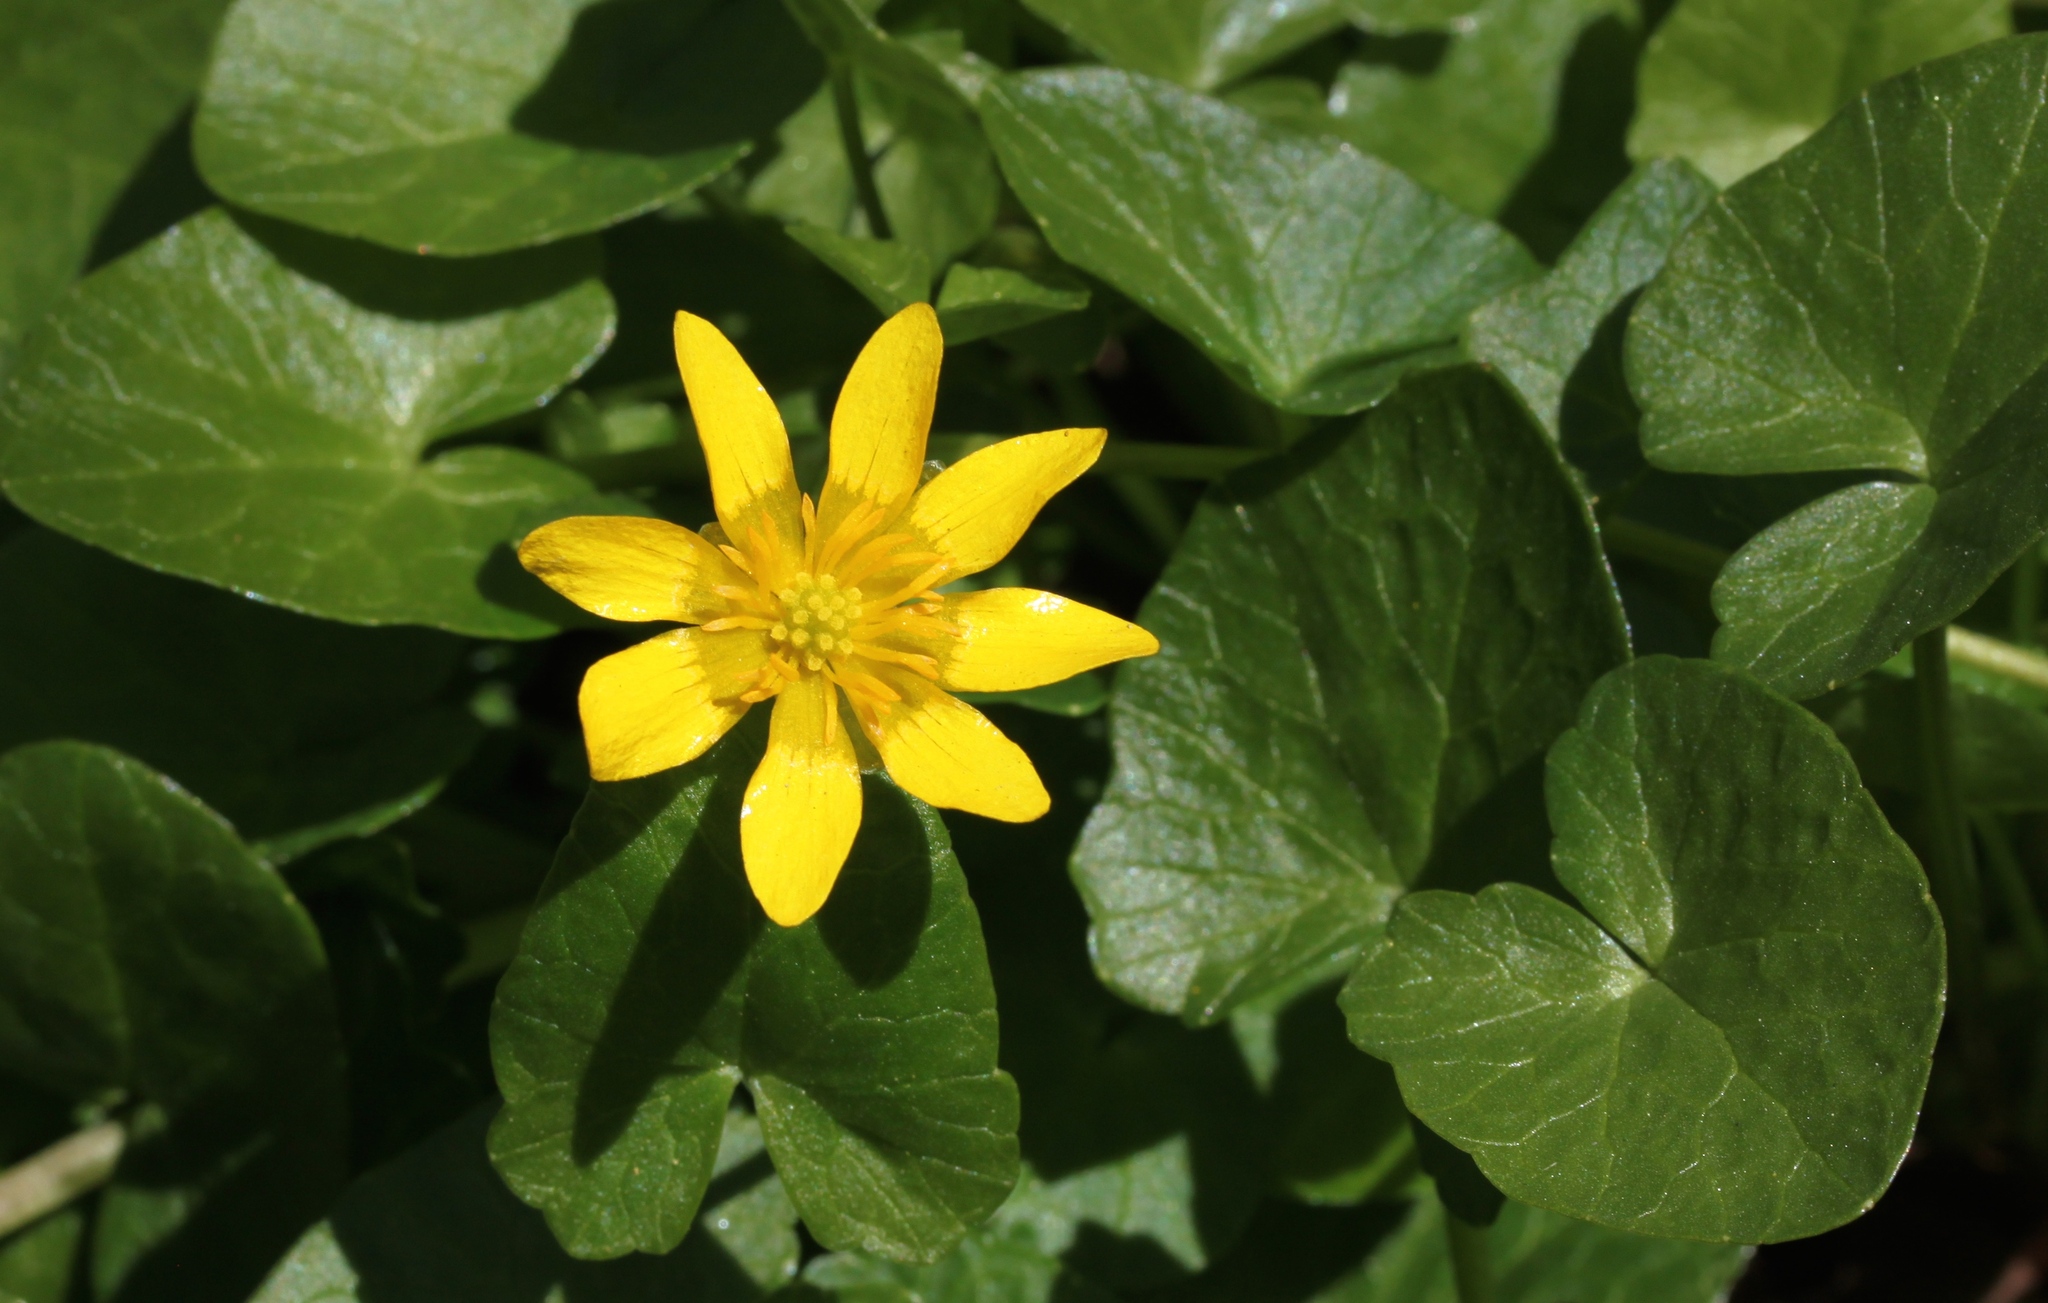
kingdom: Plantae
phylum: Tracheophyta
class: Magnoliopsida
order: Ranunculales
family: Ranunculaceae
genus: Ficaria
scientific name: Ficaria verna
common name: Lesser celandine
